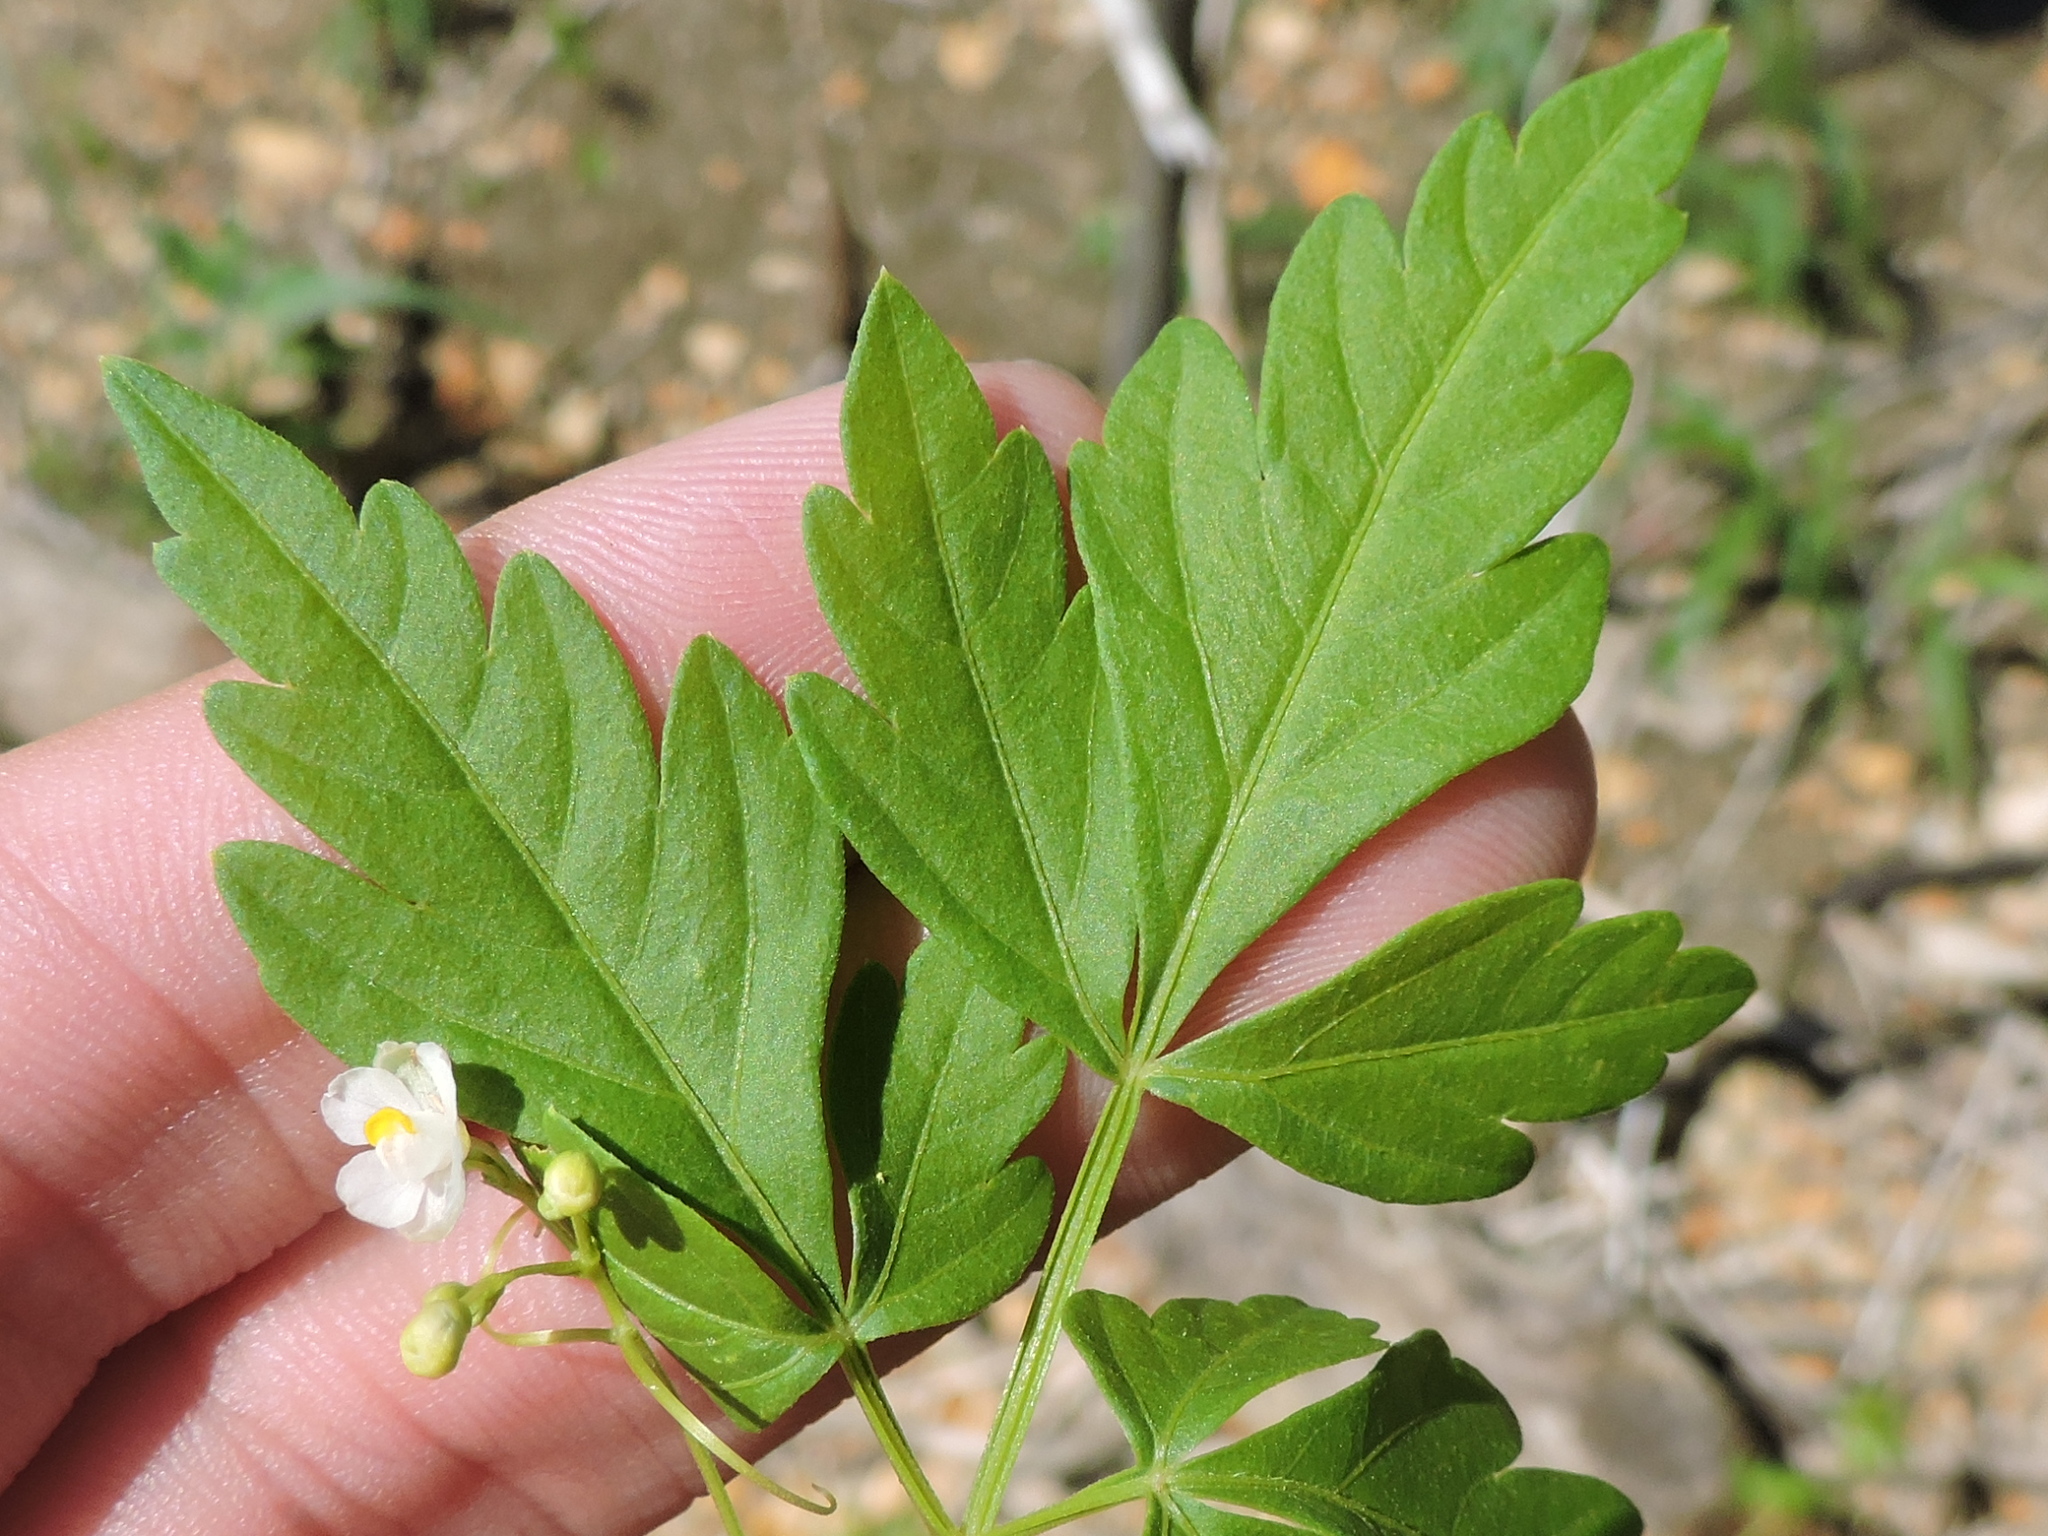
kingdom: Plantae
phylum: Tracheophyta
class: Magnoliopsida
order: Sapindales
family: Sapindaceae
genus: Cardiospermum
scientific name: Cardiospermum halicacabum
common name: Balloon vine
